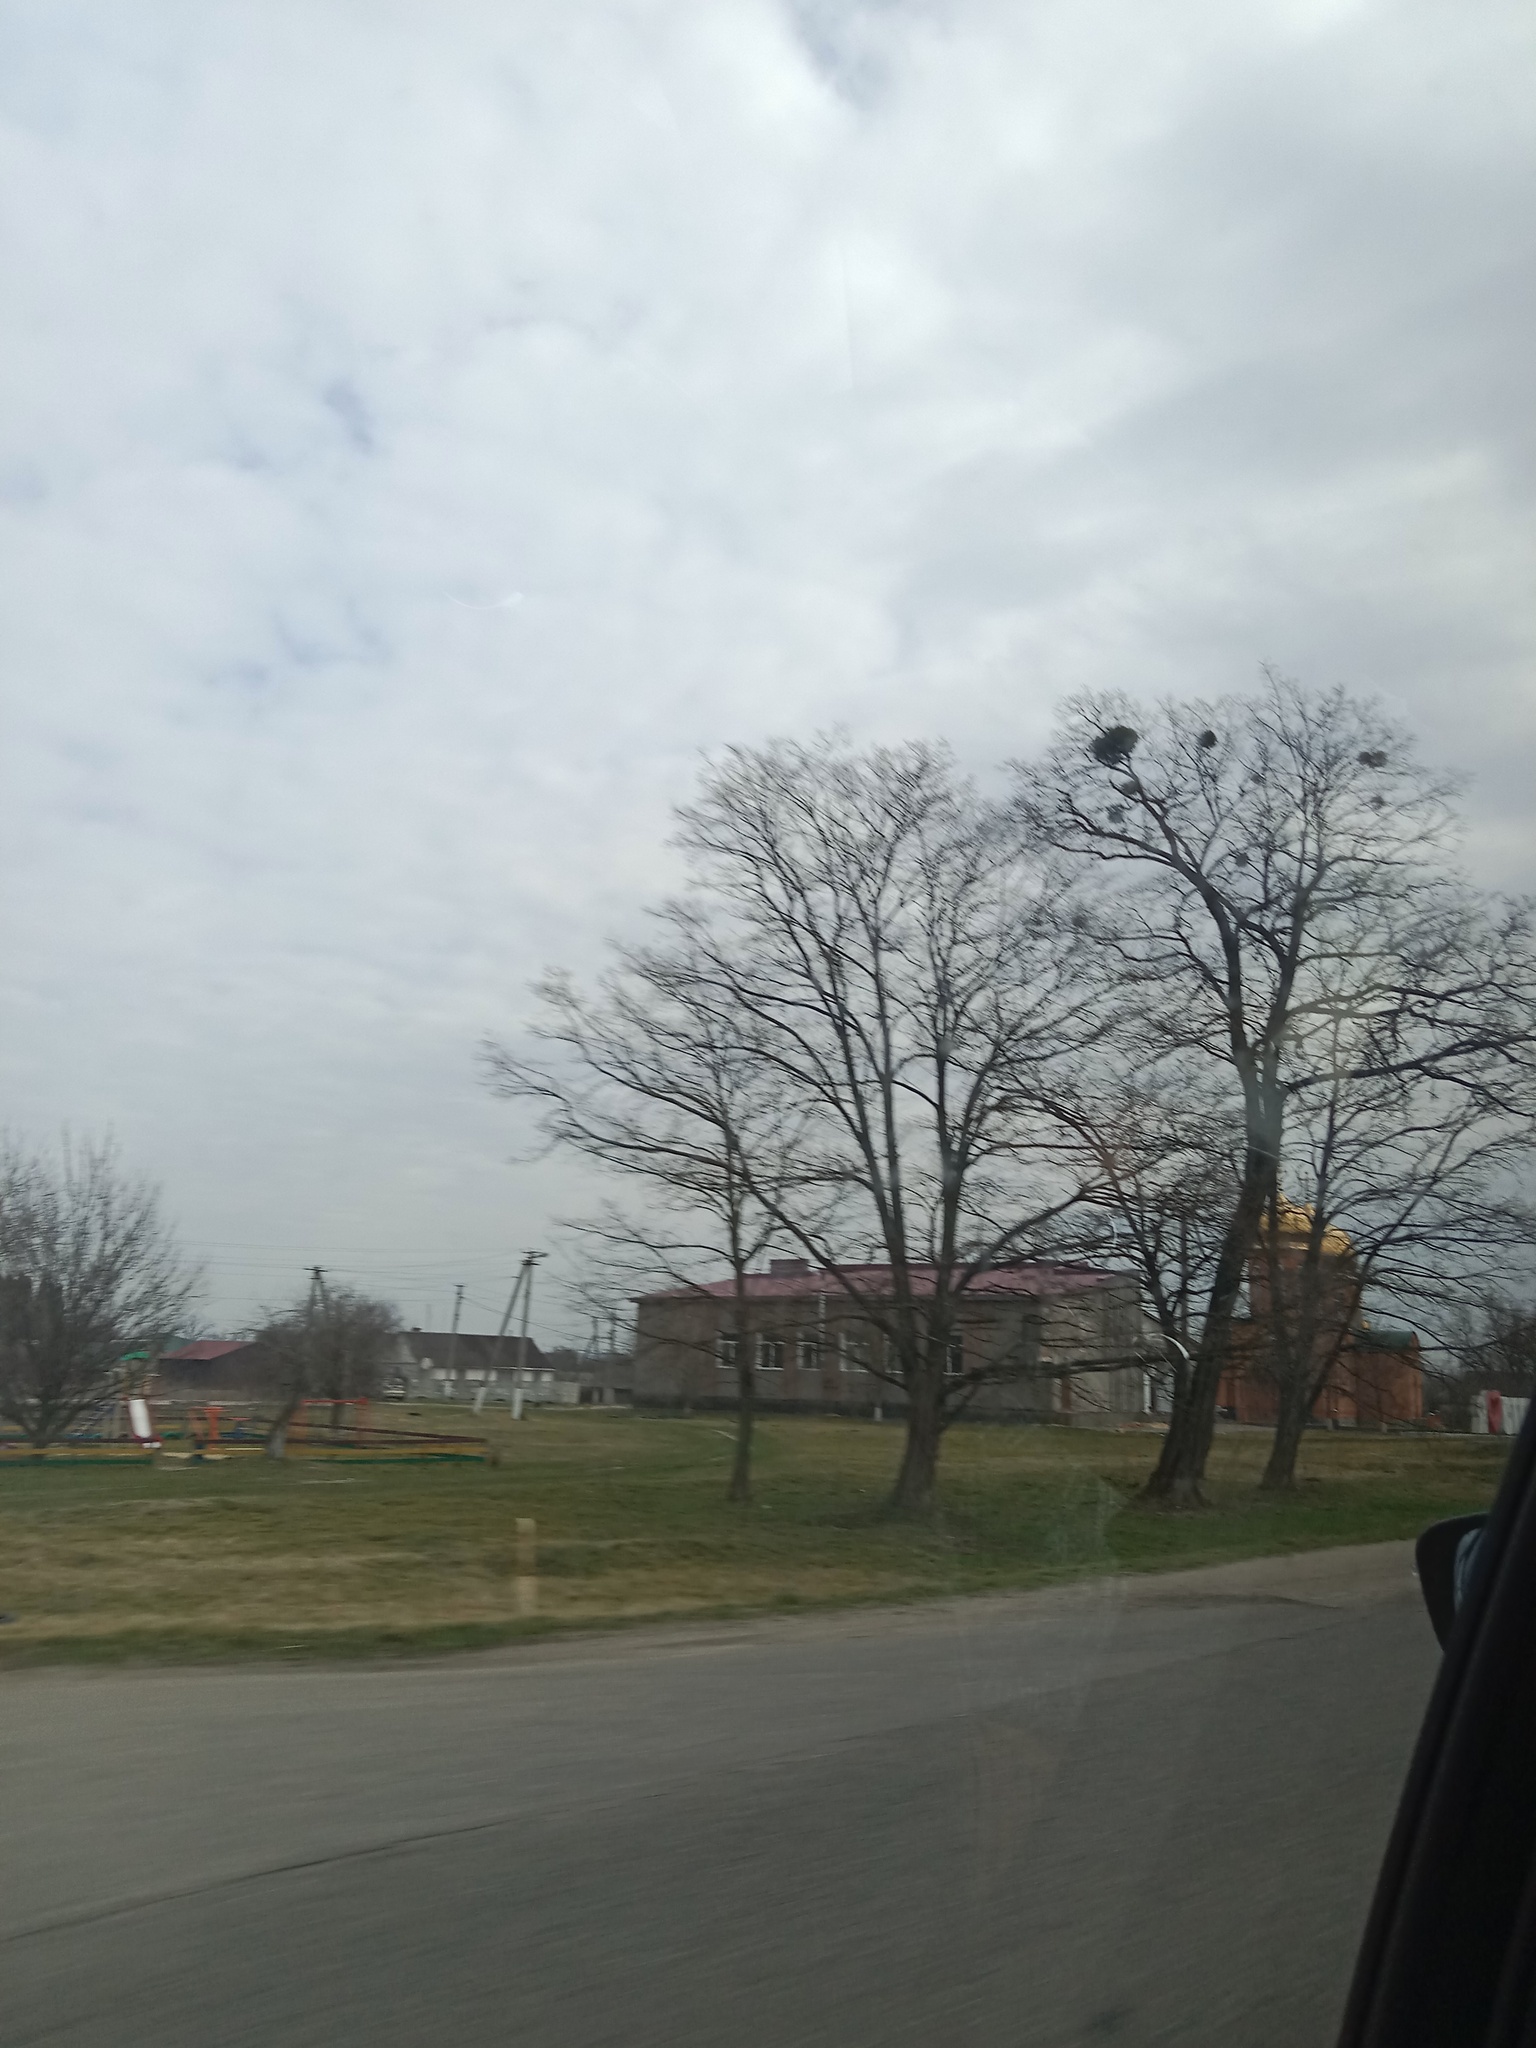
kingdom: Plantae
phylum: Tracheophyta
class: Magnoliopsida
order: Santalales
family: Viscaceae
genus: Viscum
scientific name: Viscum album
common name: Mistletoe
